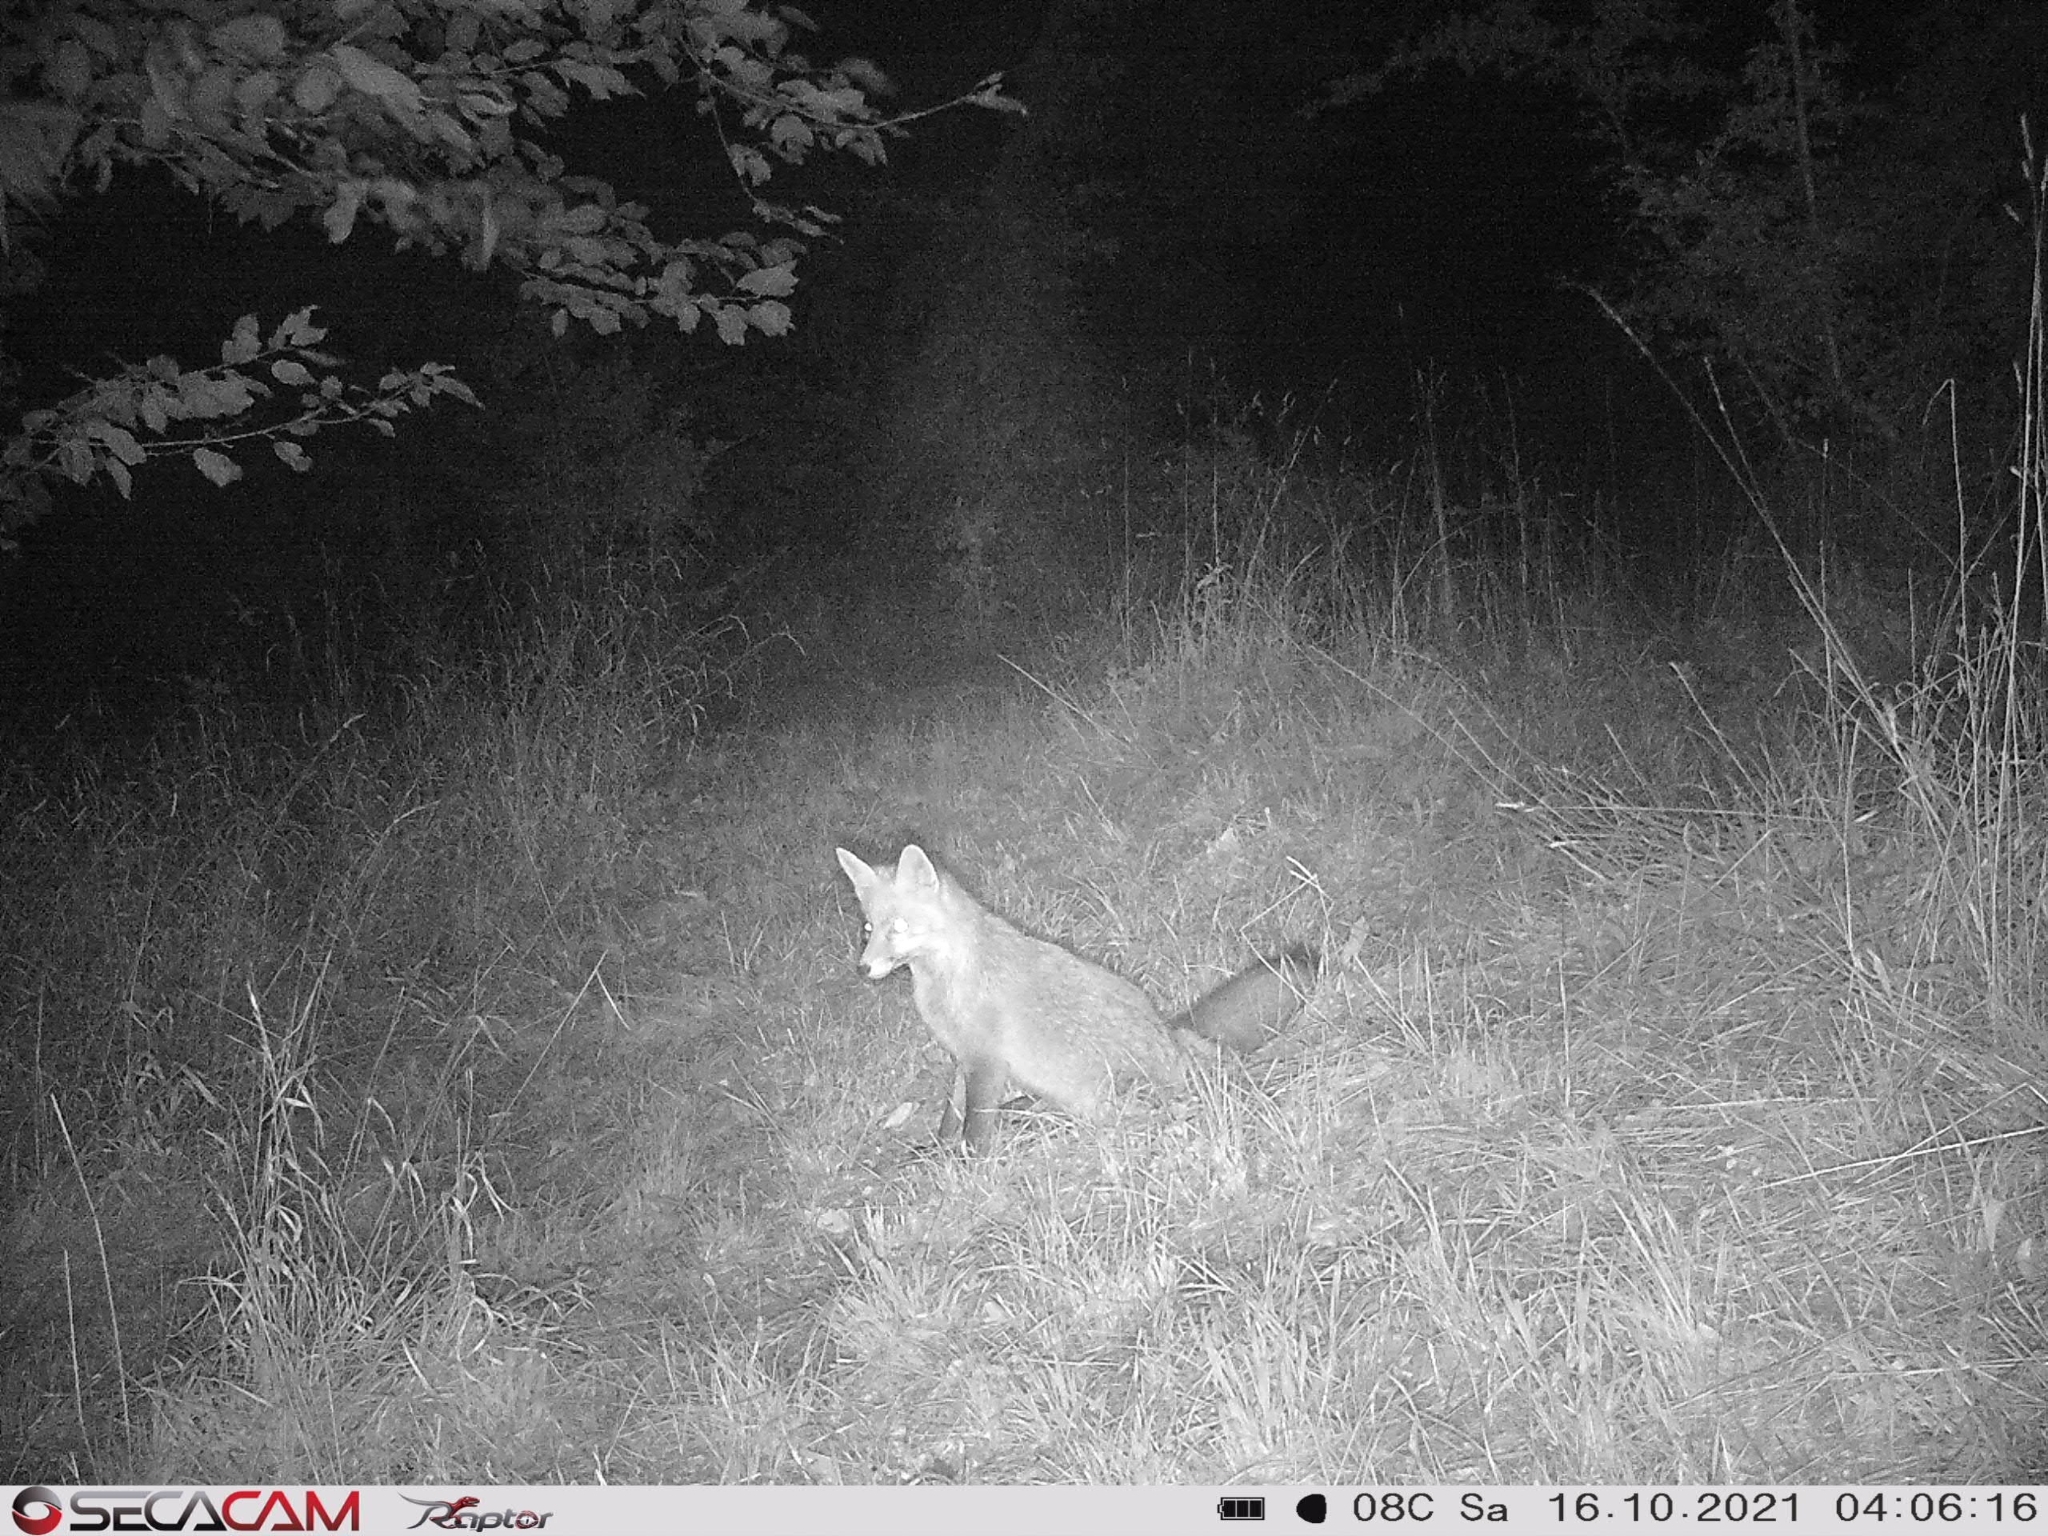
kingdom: Animalia
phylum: Chordata
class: Mammalia
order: Carnivora
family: Canidae
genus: Vulpes
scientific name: Vulpes vulpes
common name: Red fox
